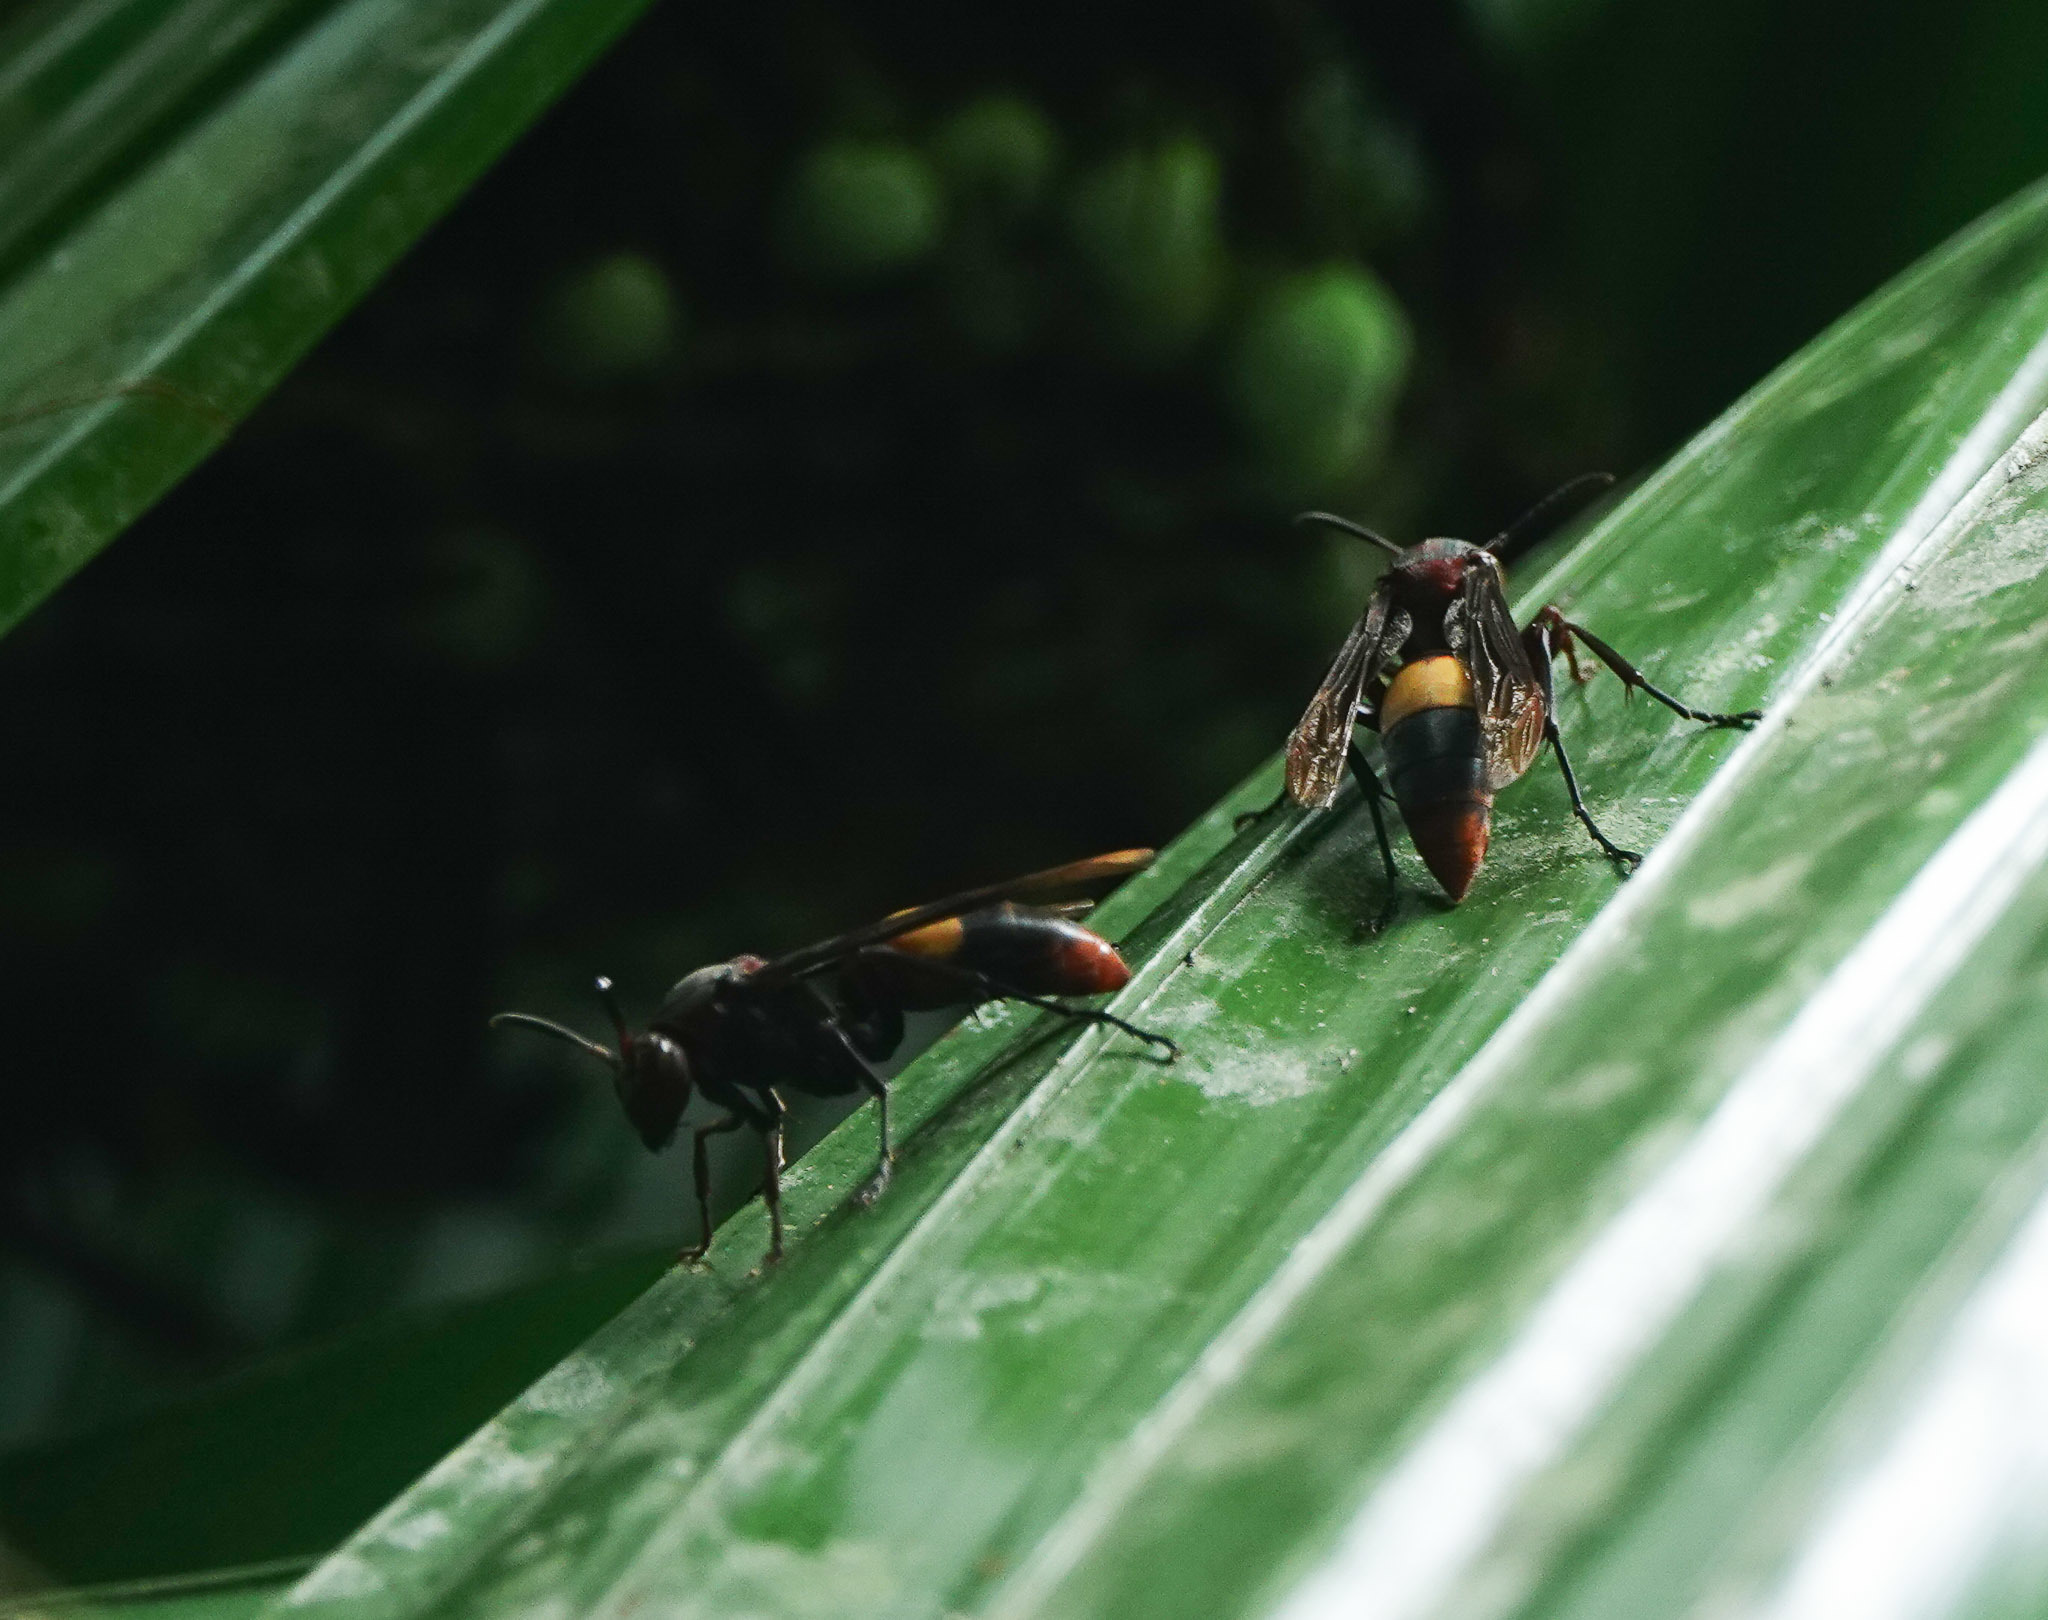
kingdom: Animalia
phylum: Arthropoda
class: Insecta
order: Hymenoptera
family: Eumenidae
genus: Polistes
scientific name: Polistes sagittarius
